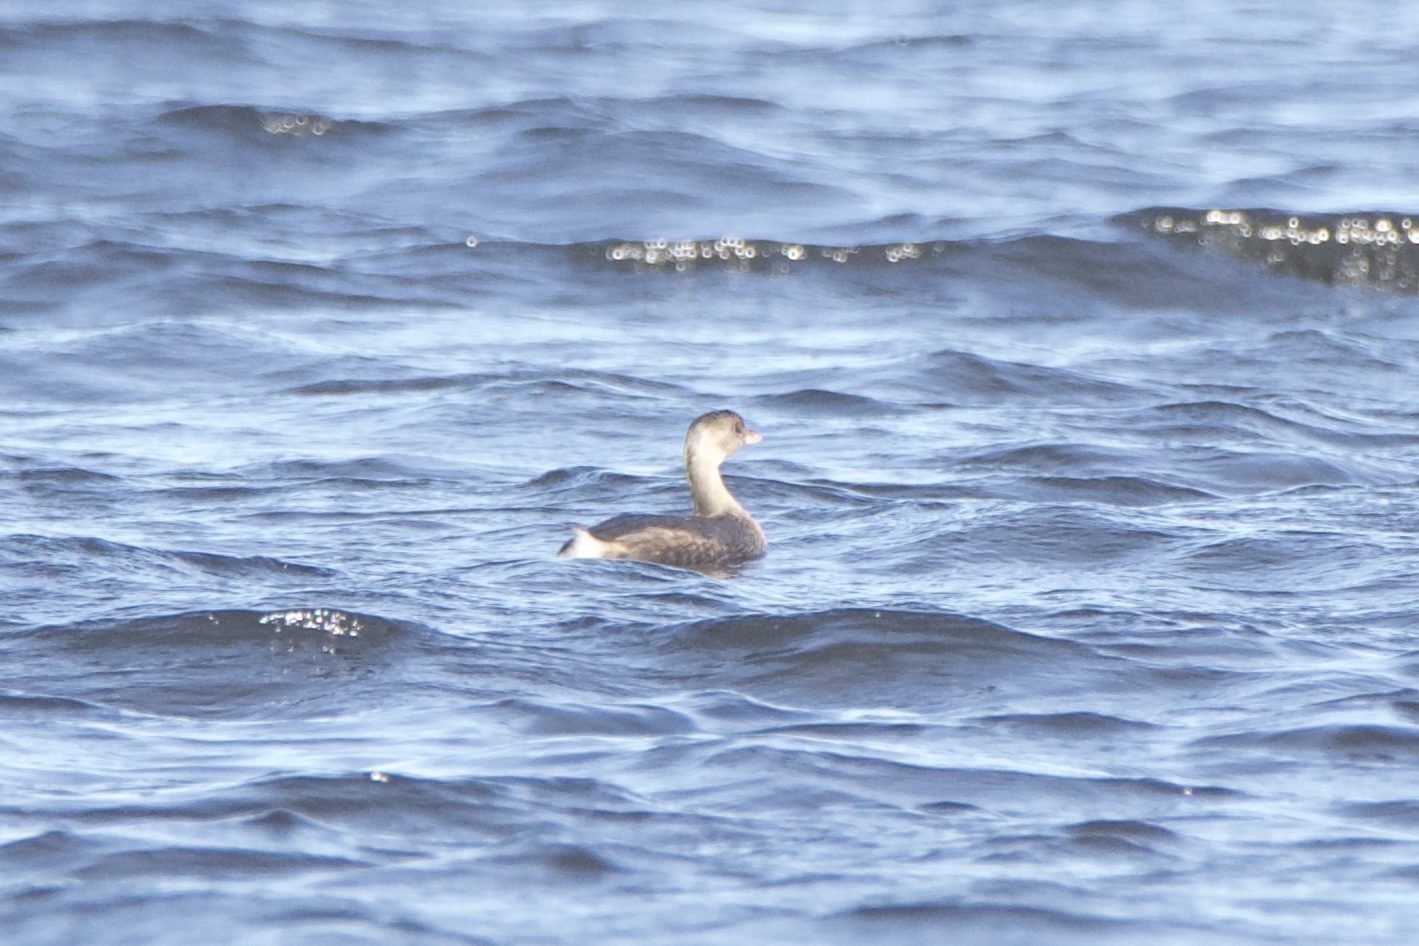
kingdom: Animalia
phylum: Chordata
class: Aves
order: Podicipediformes
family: Podicipedidae
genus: Podilymbus
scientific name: Podilymbus podiceps
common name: Pied-billed grebe
